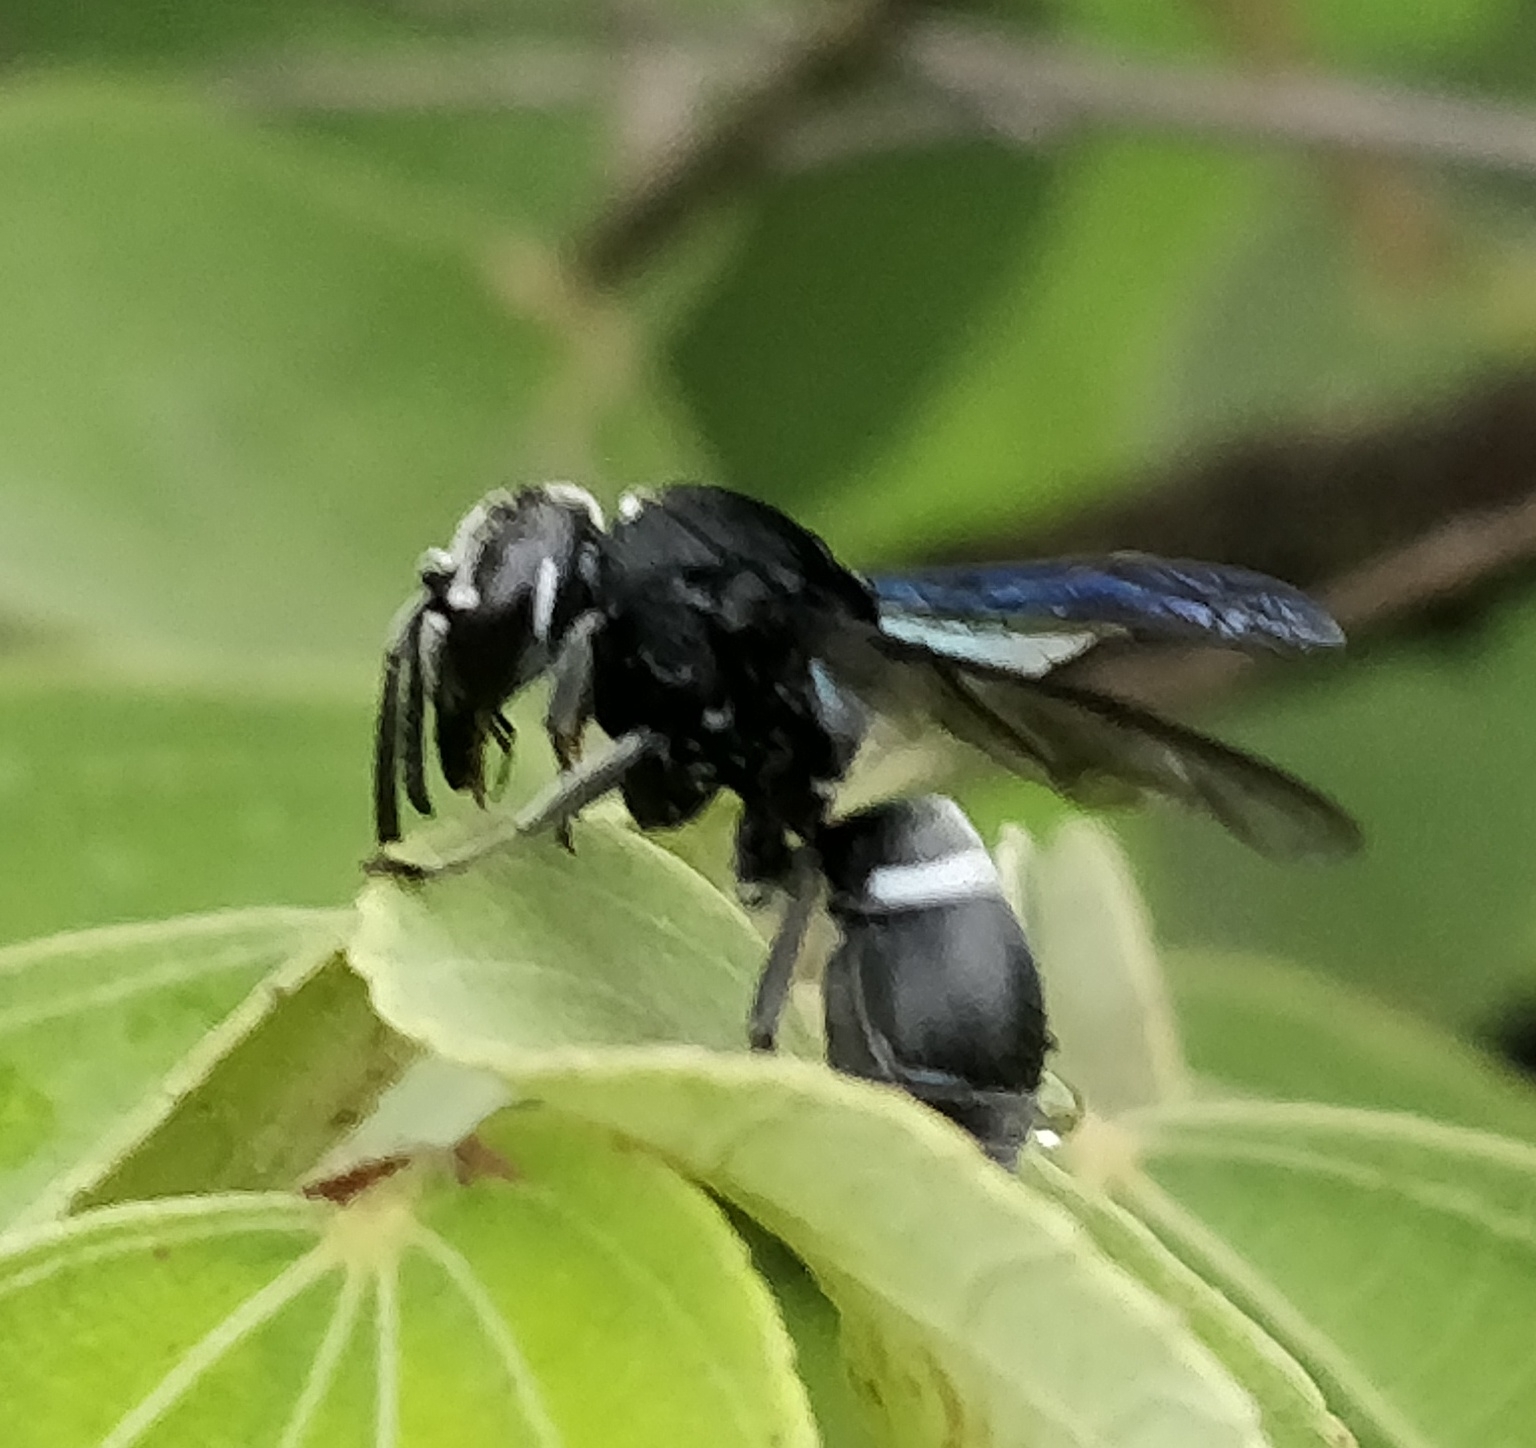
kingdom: Animalia
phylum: Arthropoda
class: Insecta
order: Hymenoptera
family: Vespidae
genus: Indodynerus
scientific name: Indodynerus capitatus
